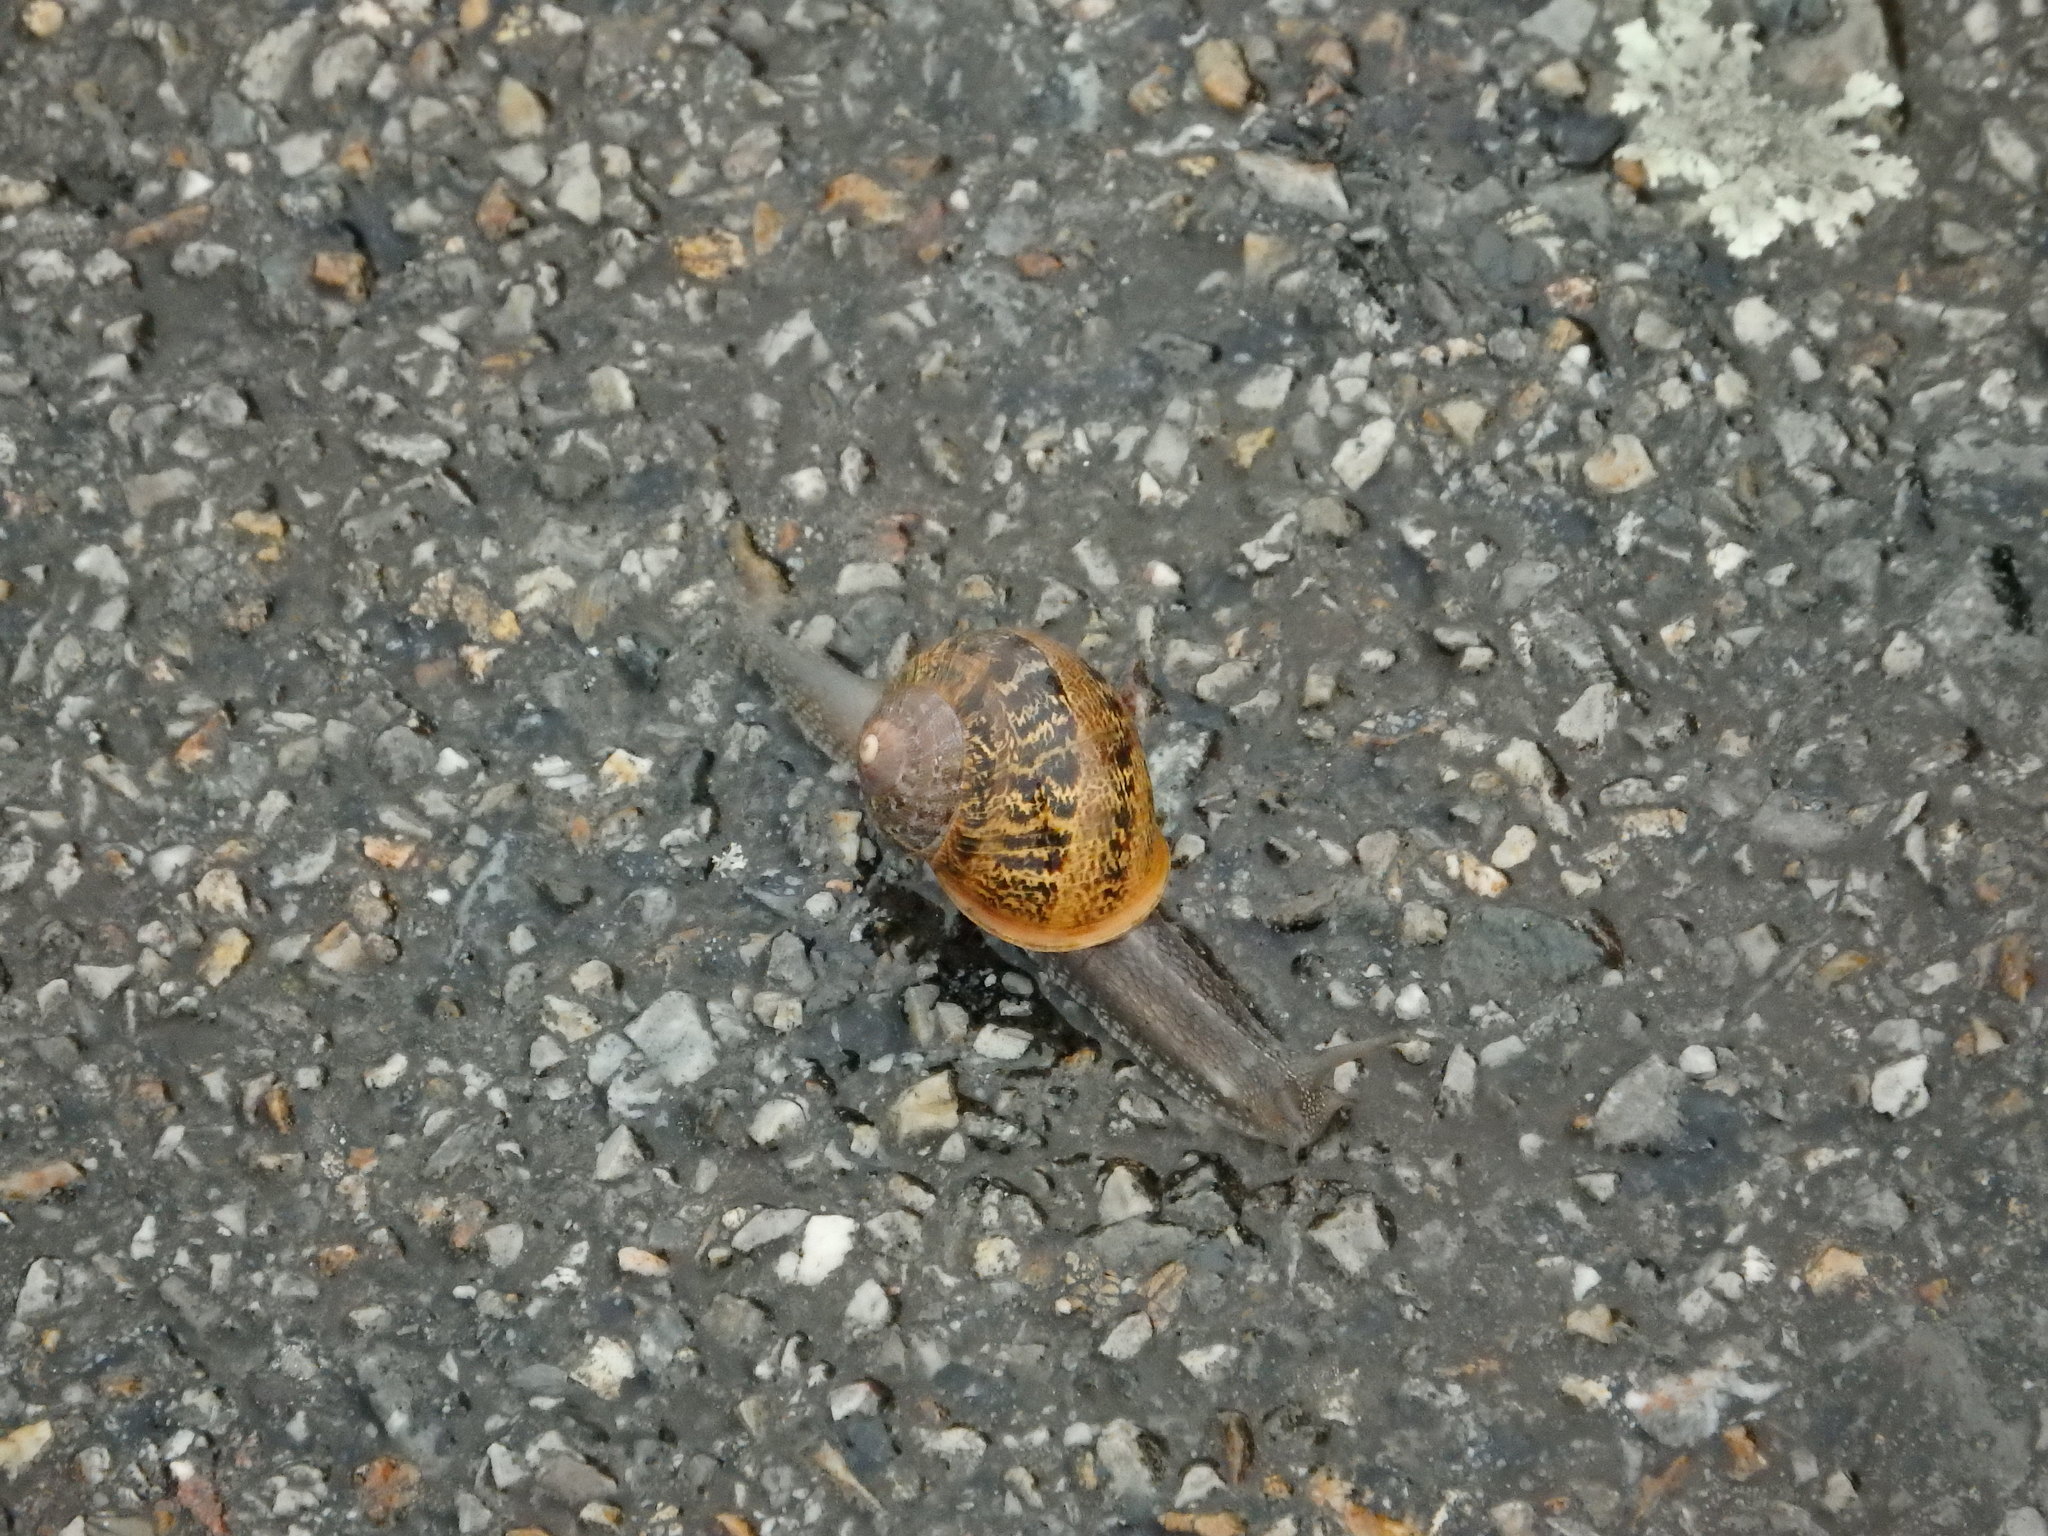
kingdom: Animalia
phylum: Mollusca
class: Gastropoda
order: Stylommatophora
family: Helicidae
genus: Cornu
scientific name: Cornu aspersum
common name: Brown garden snail
